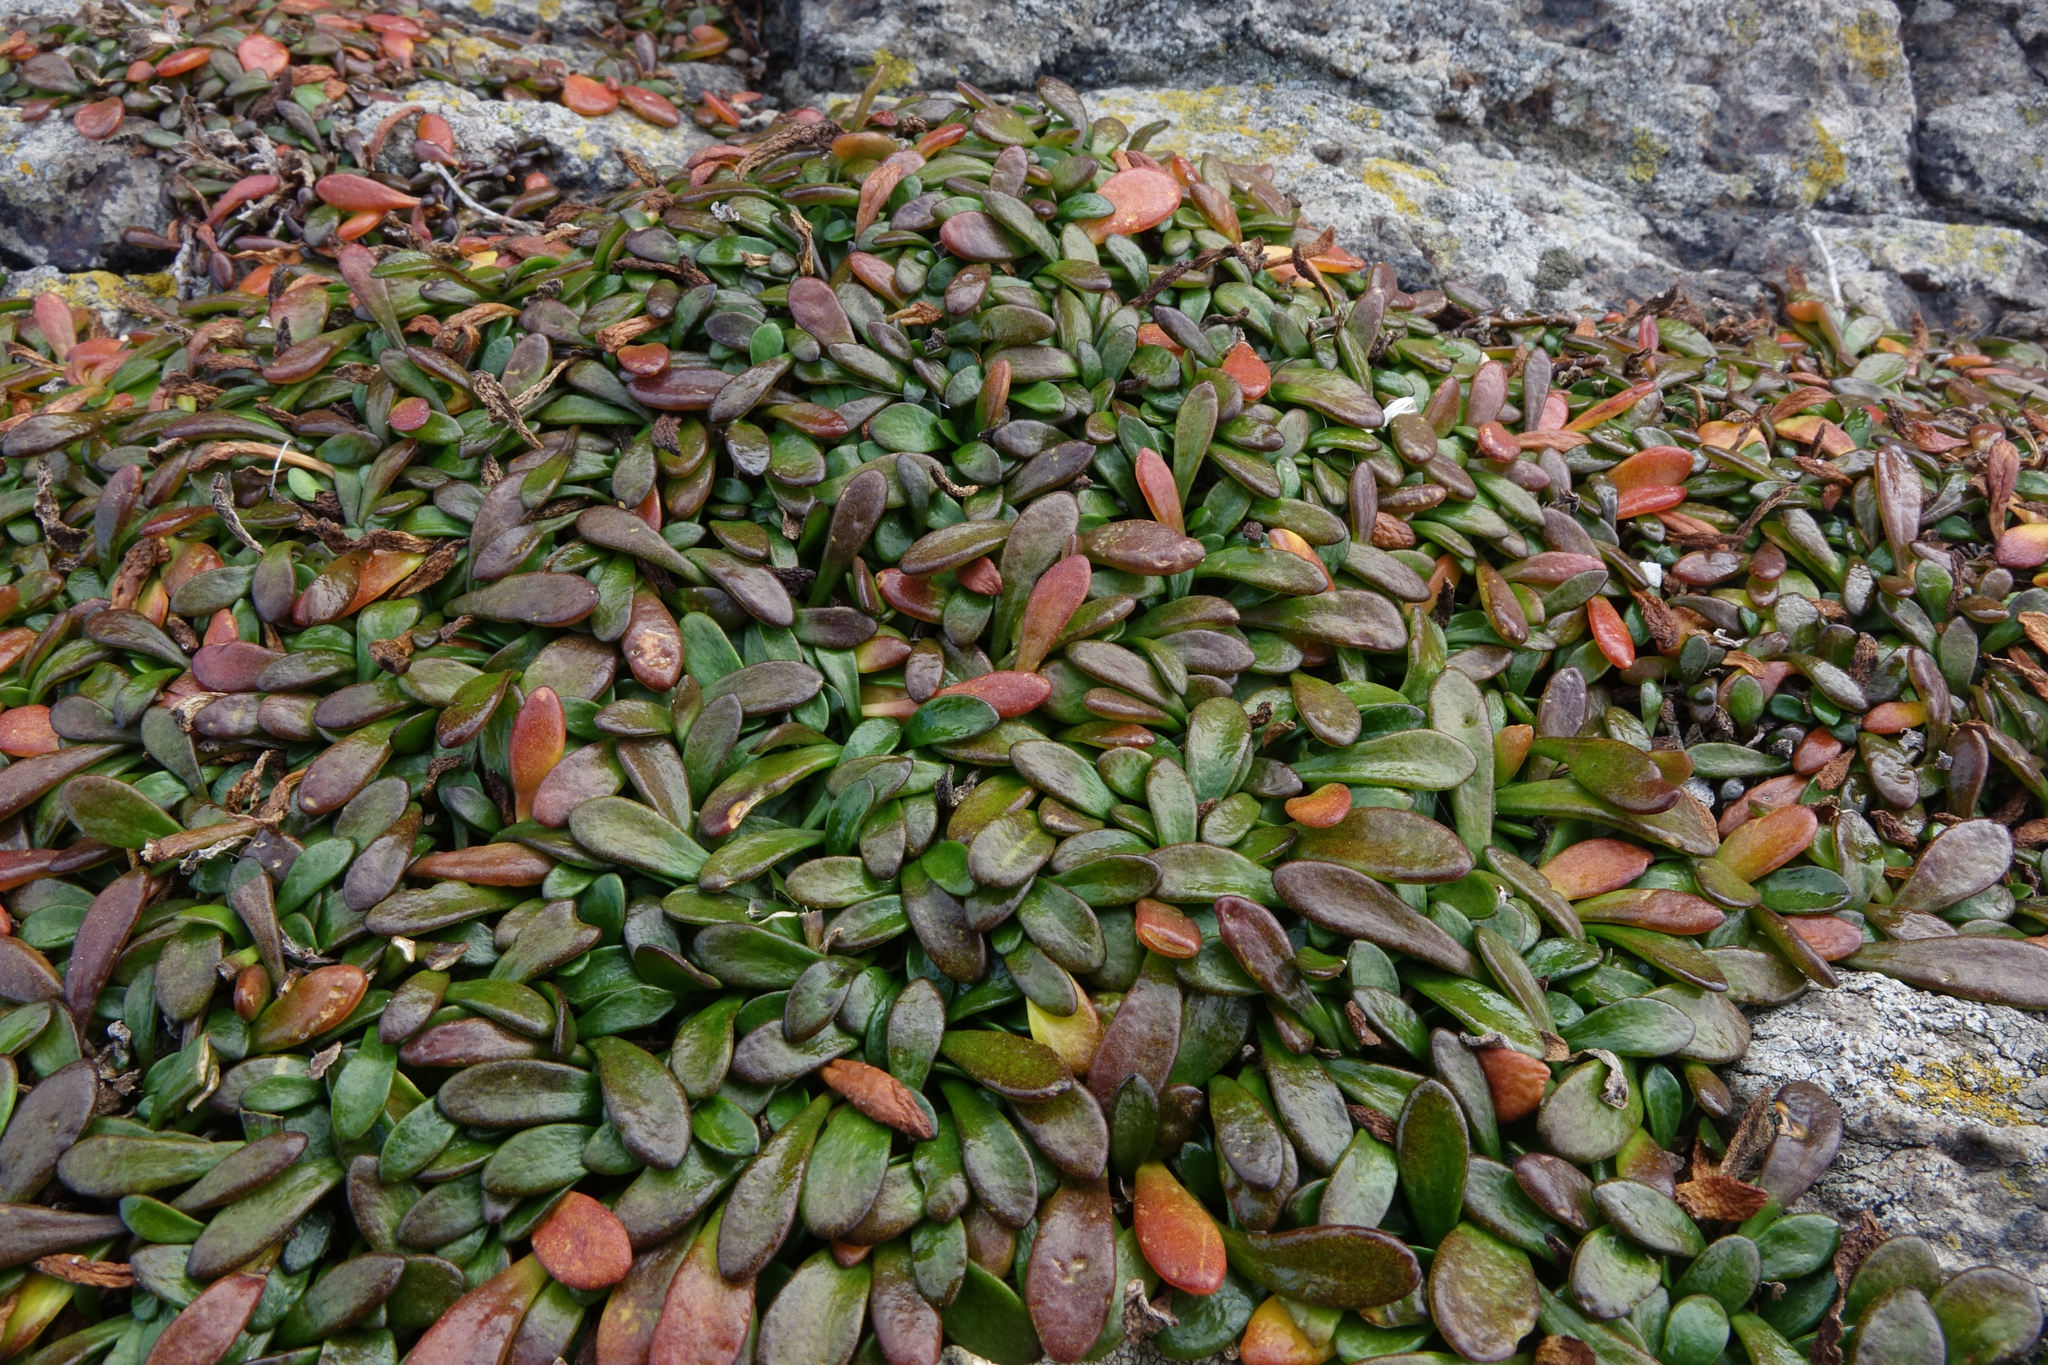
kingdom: Plantae
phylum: Tracheophyta
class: Magnoliopsida
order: Asterales
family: Goodeniaceae
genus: Goodenia
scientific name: Goodenia radicans
